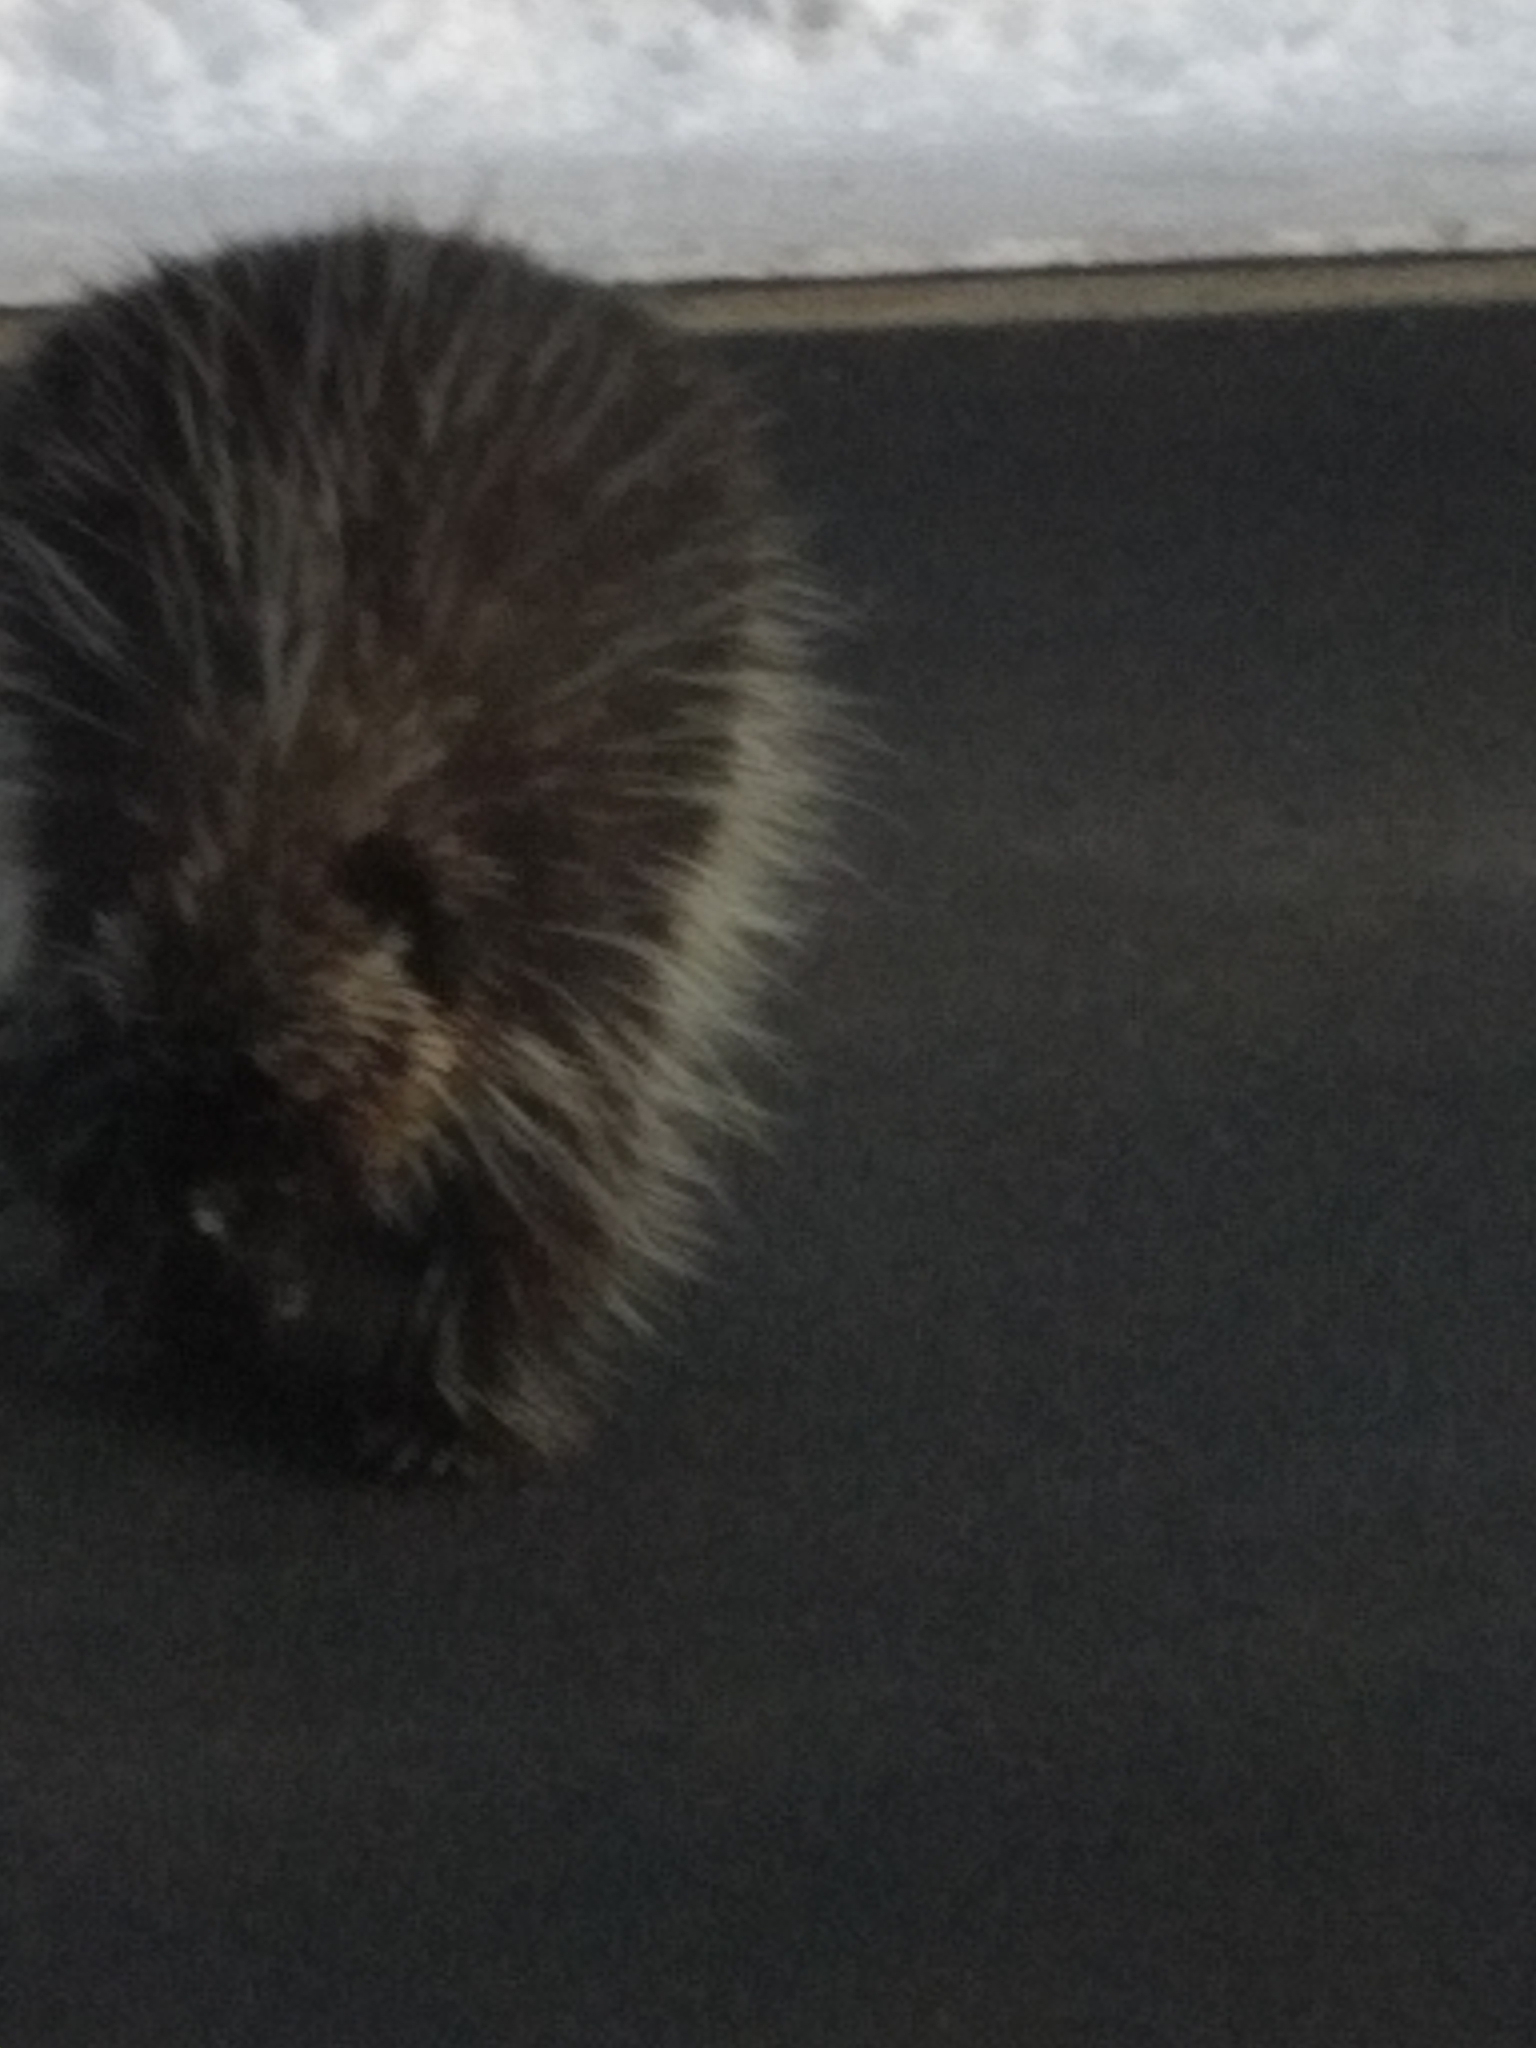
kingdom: Animalia
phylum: Chordata
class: Mammalia
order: Rodentia
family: Erethizontidae
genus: Erethizon
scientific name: Erethizon dorsatus
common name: North american porcupine
